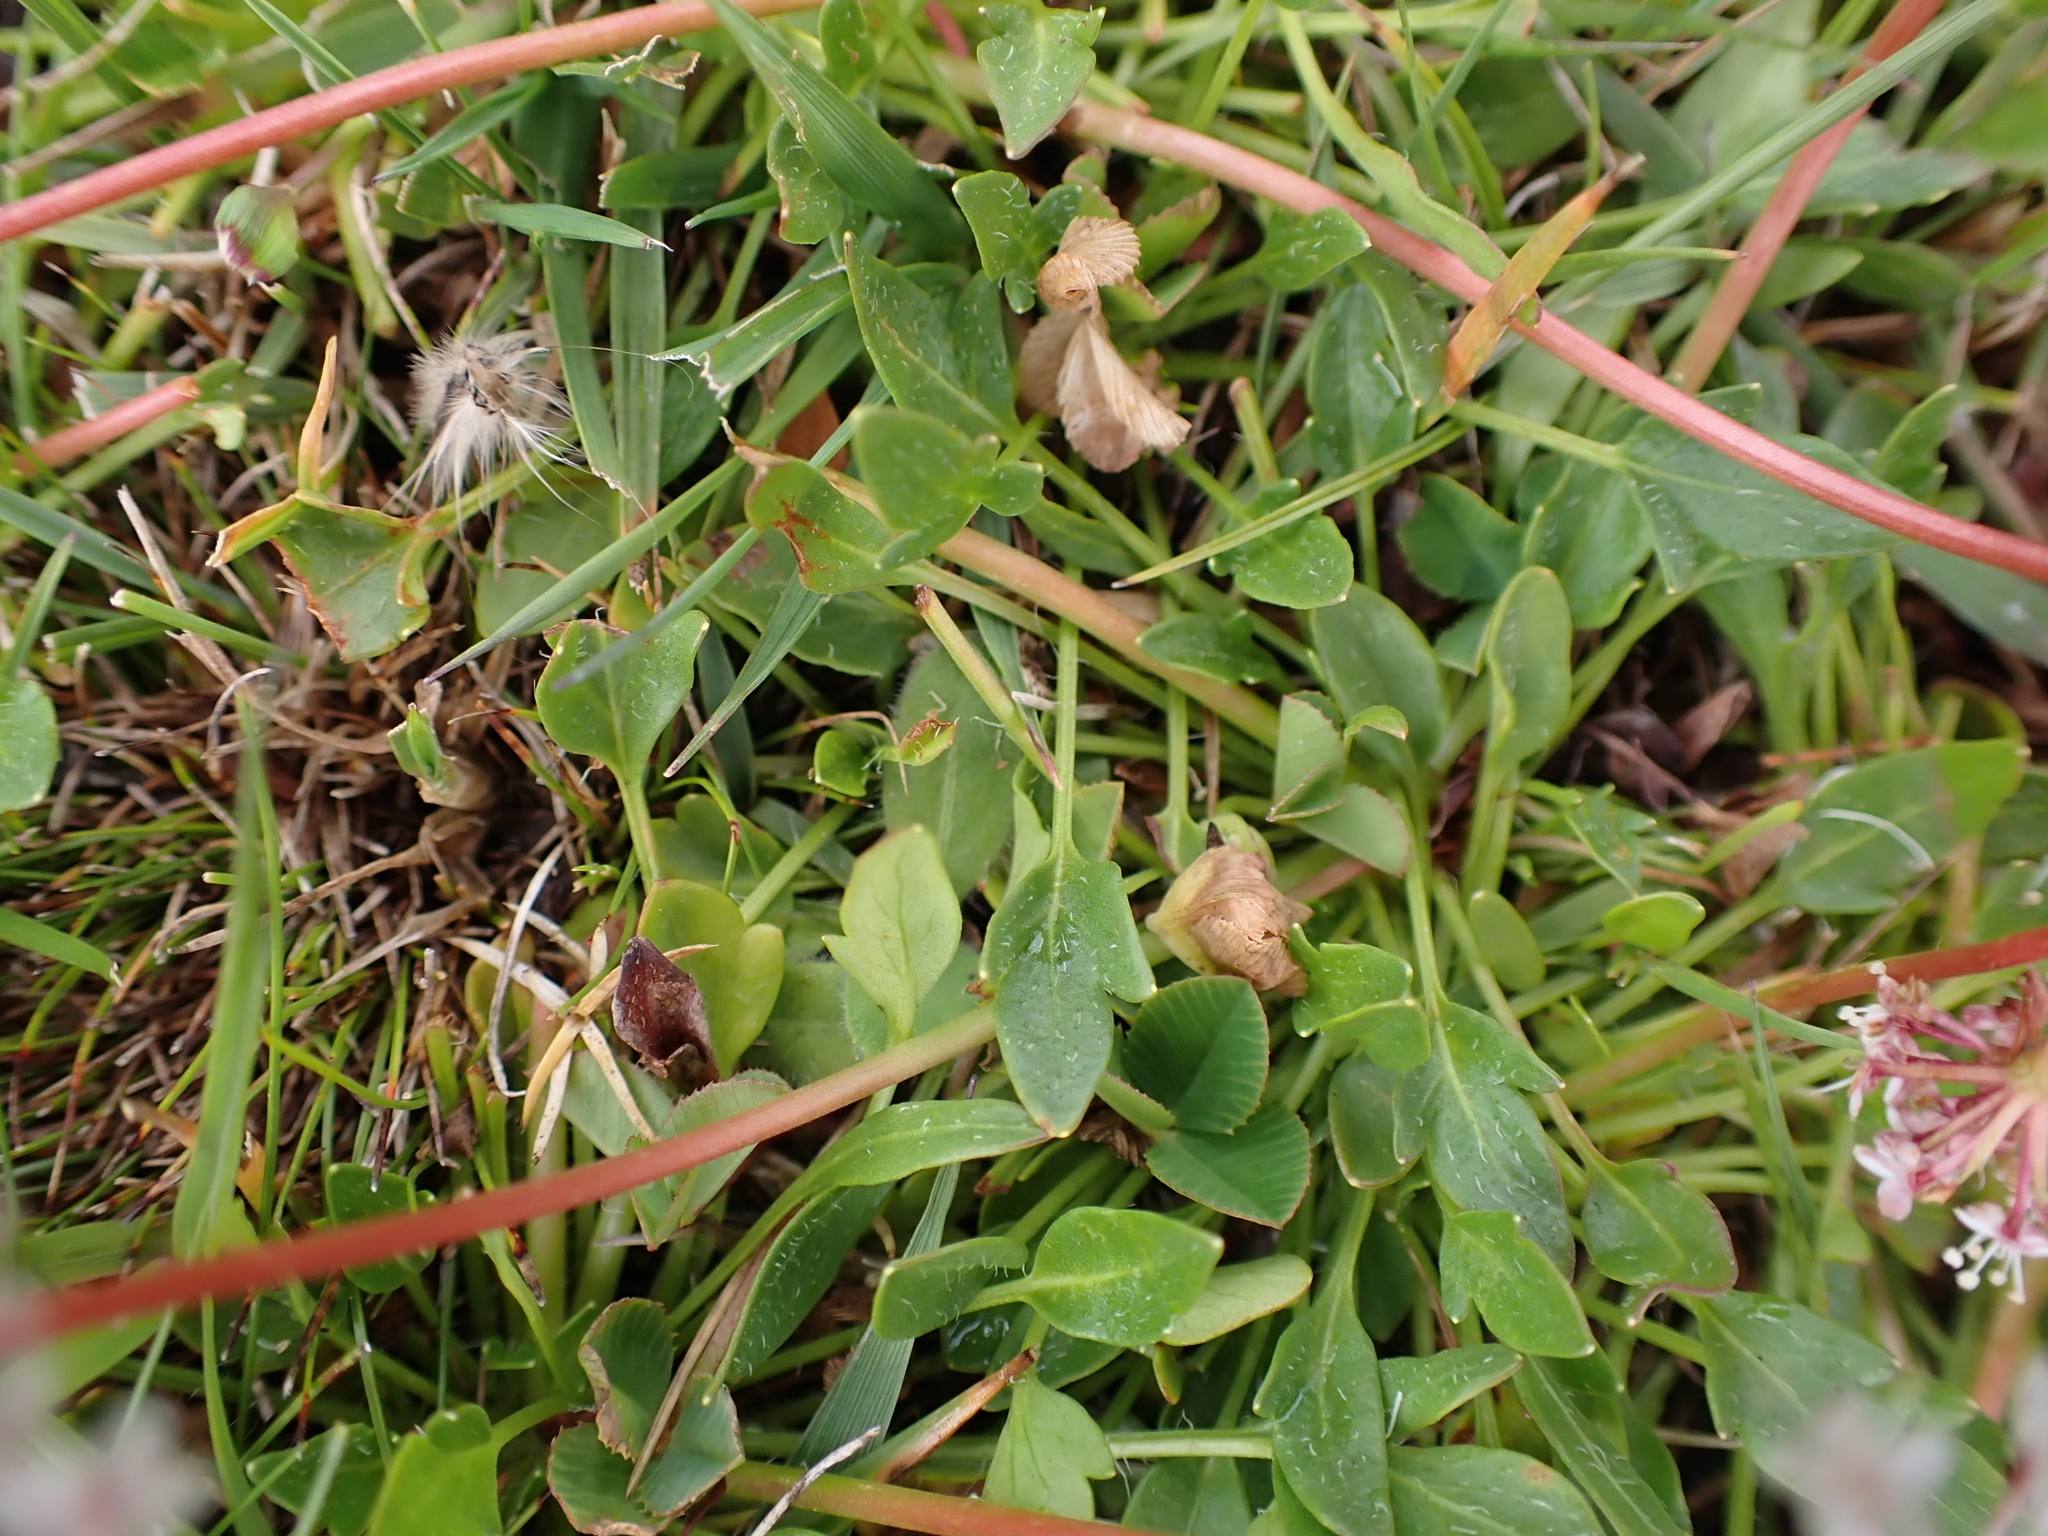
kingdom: Plantae
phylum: Tracheophyta
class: Magnoliopsida
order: Apiales
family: Araliaceae
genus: Trachymene
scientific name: Trachymene humilis
